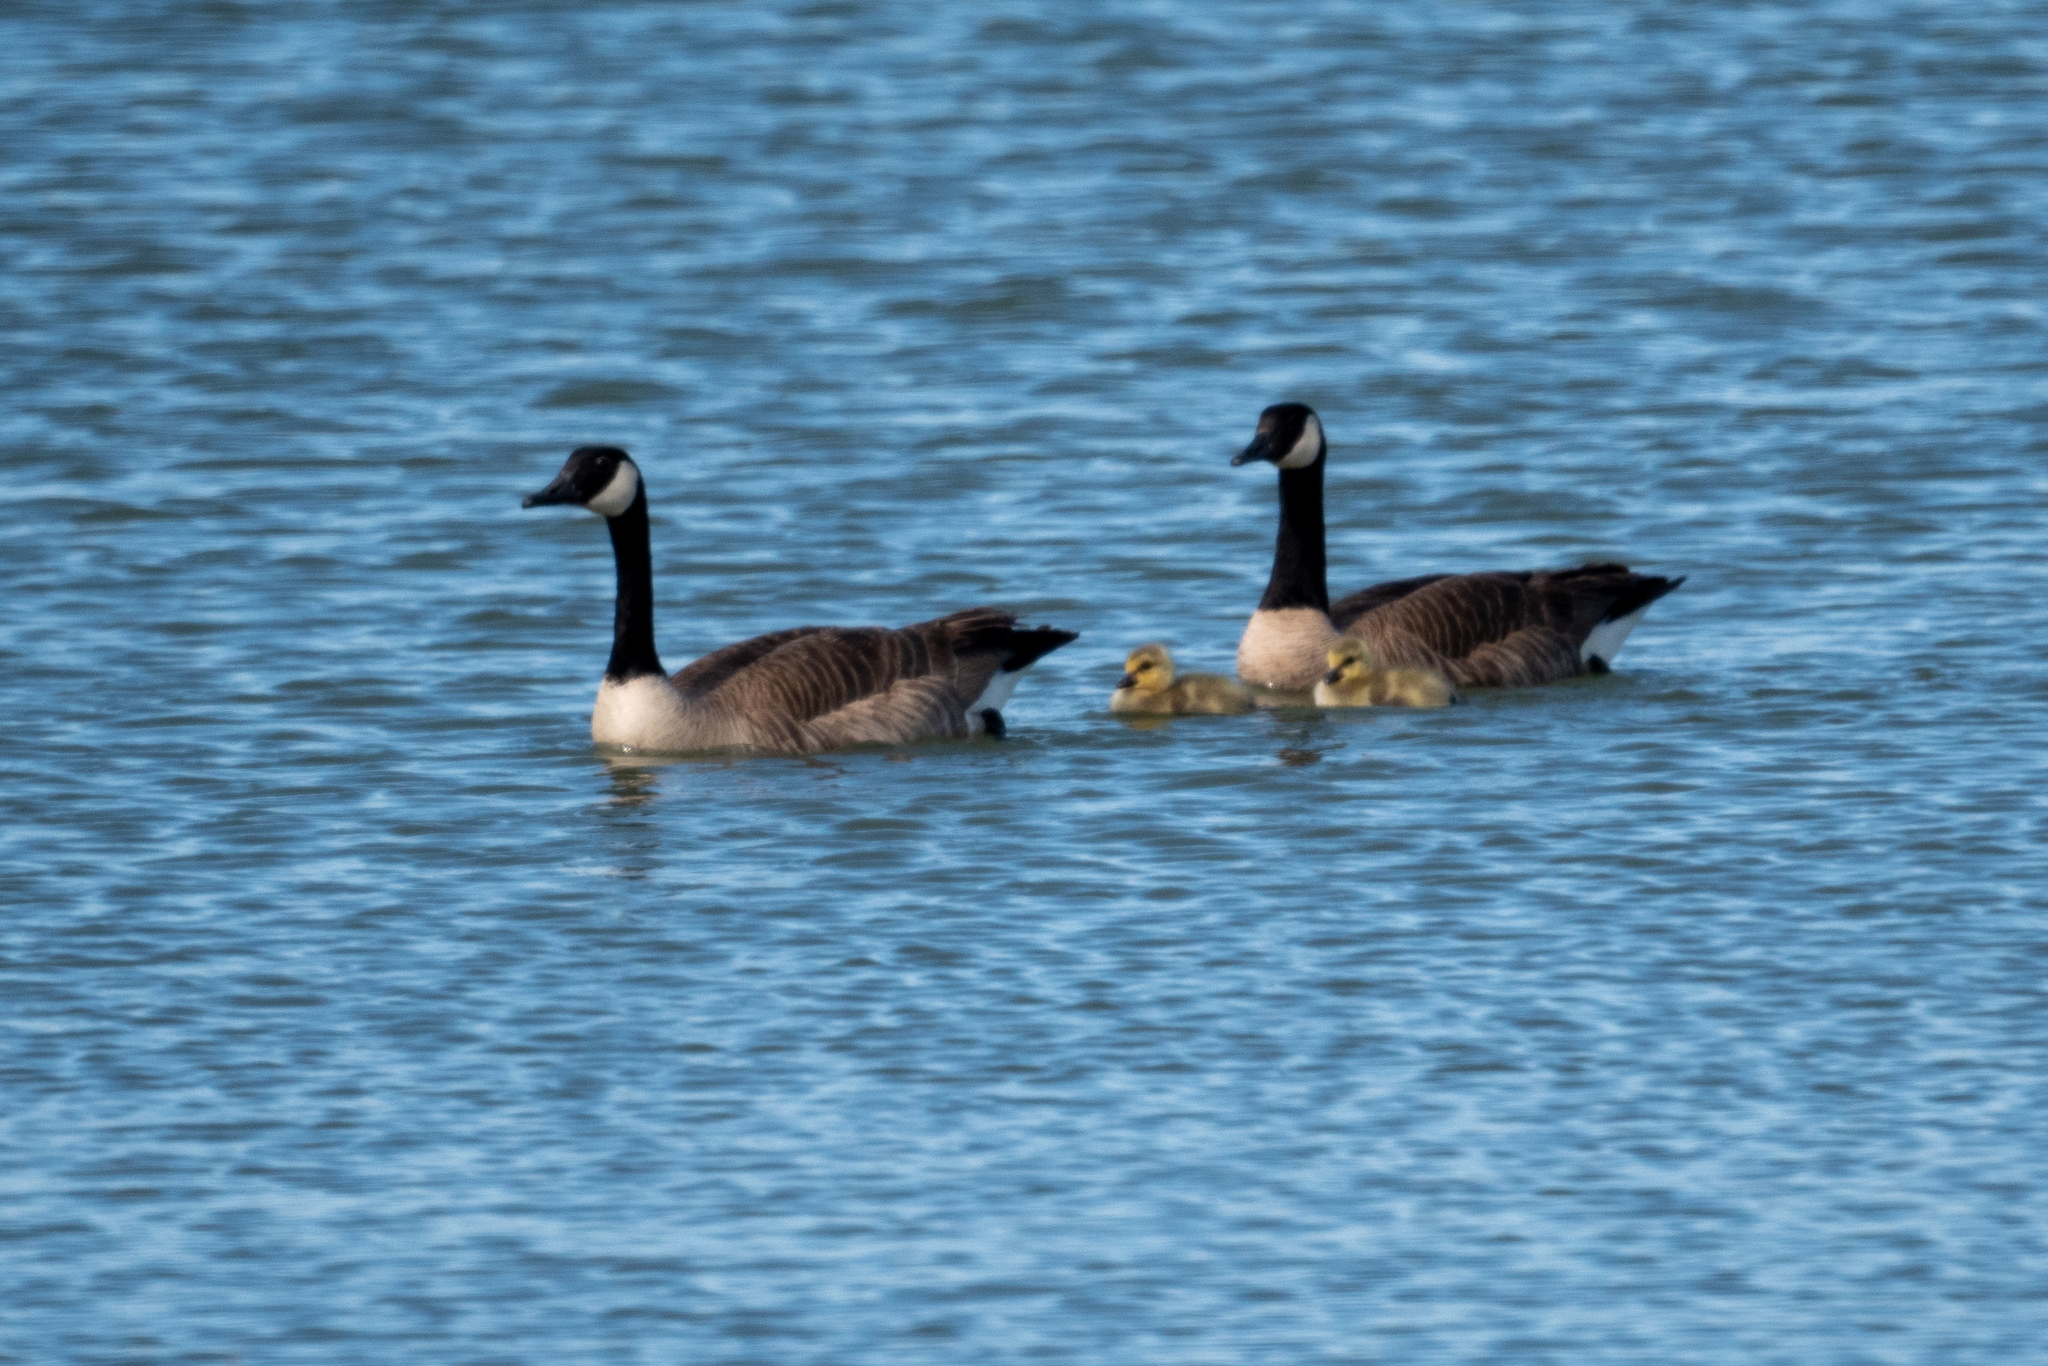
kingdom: Animalia
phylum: Chordata
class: Aves
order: Anseriformes
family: Anatidae
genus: Branta
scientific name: Branta canadensis
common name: Canada goose
